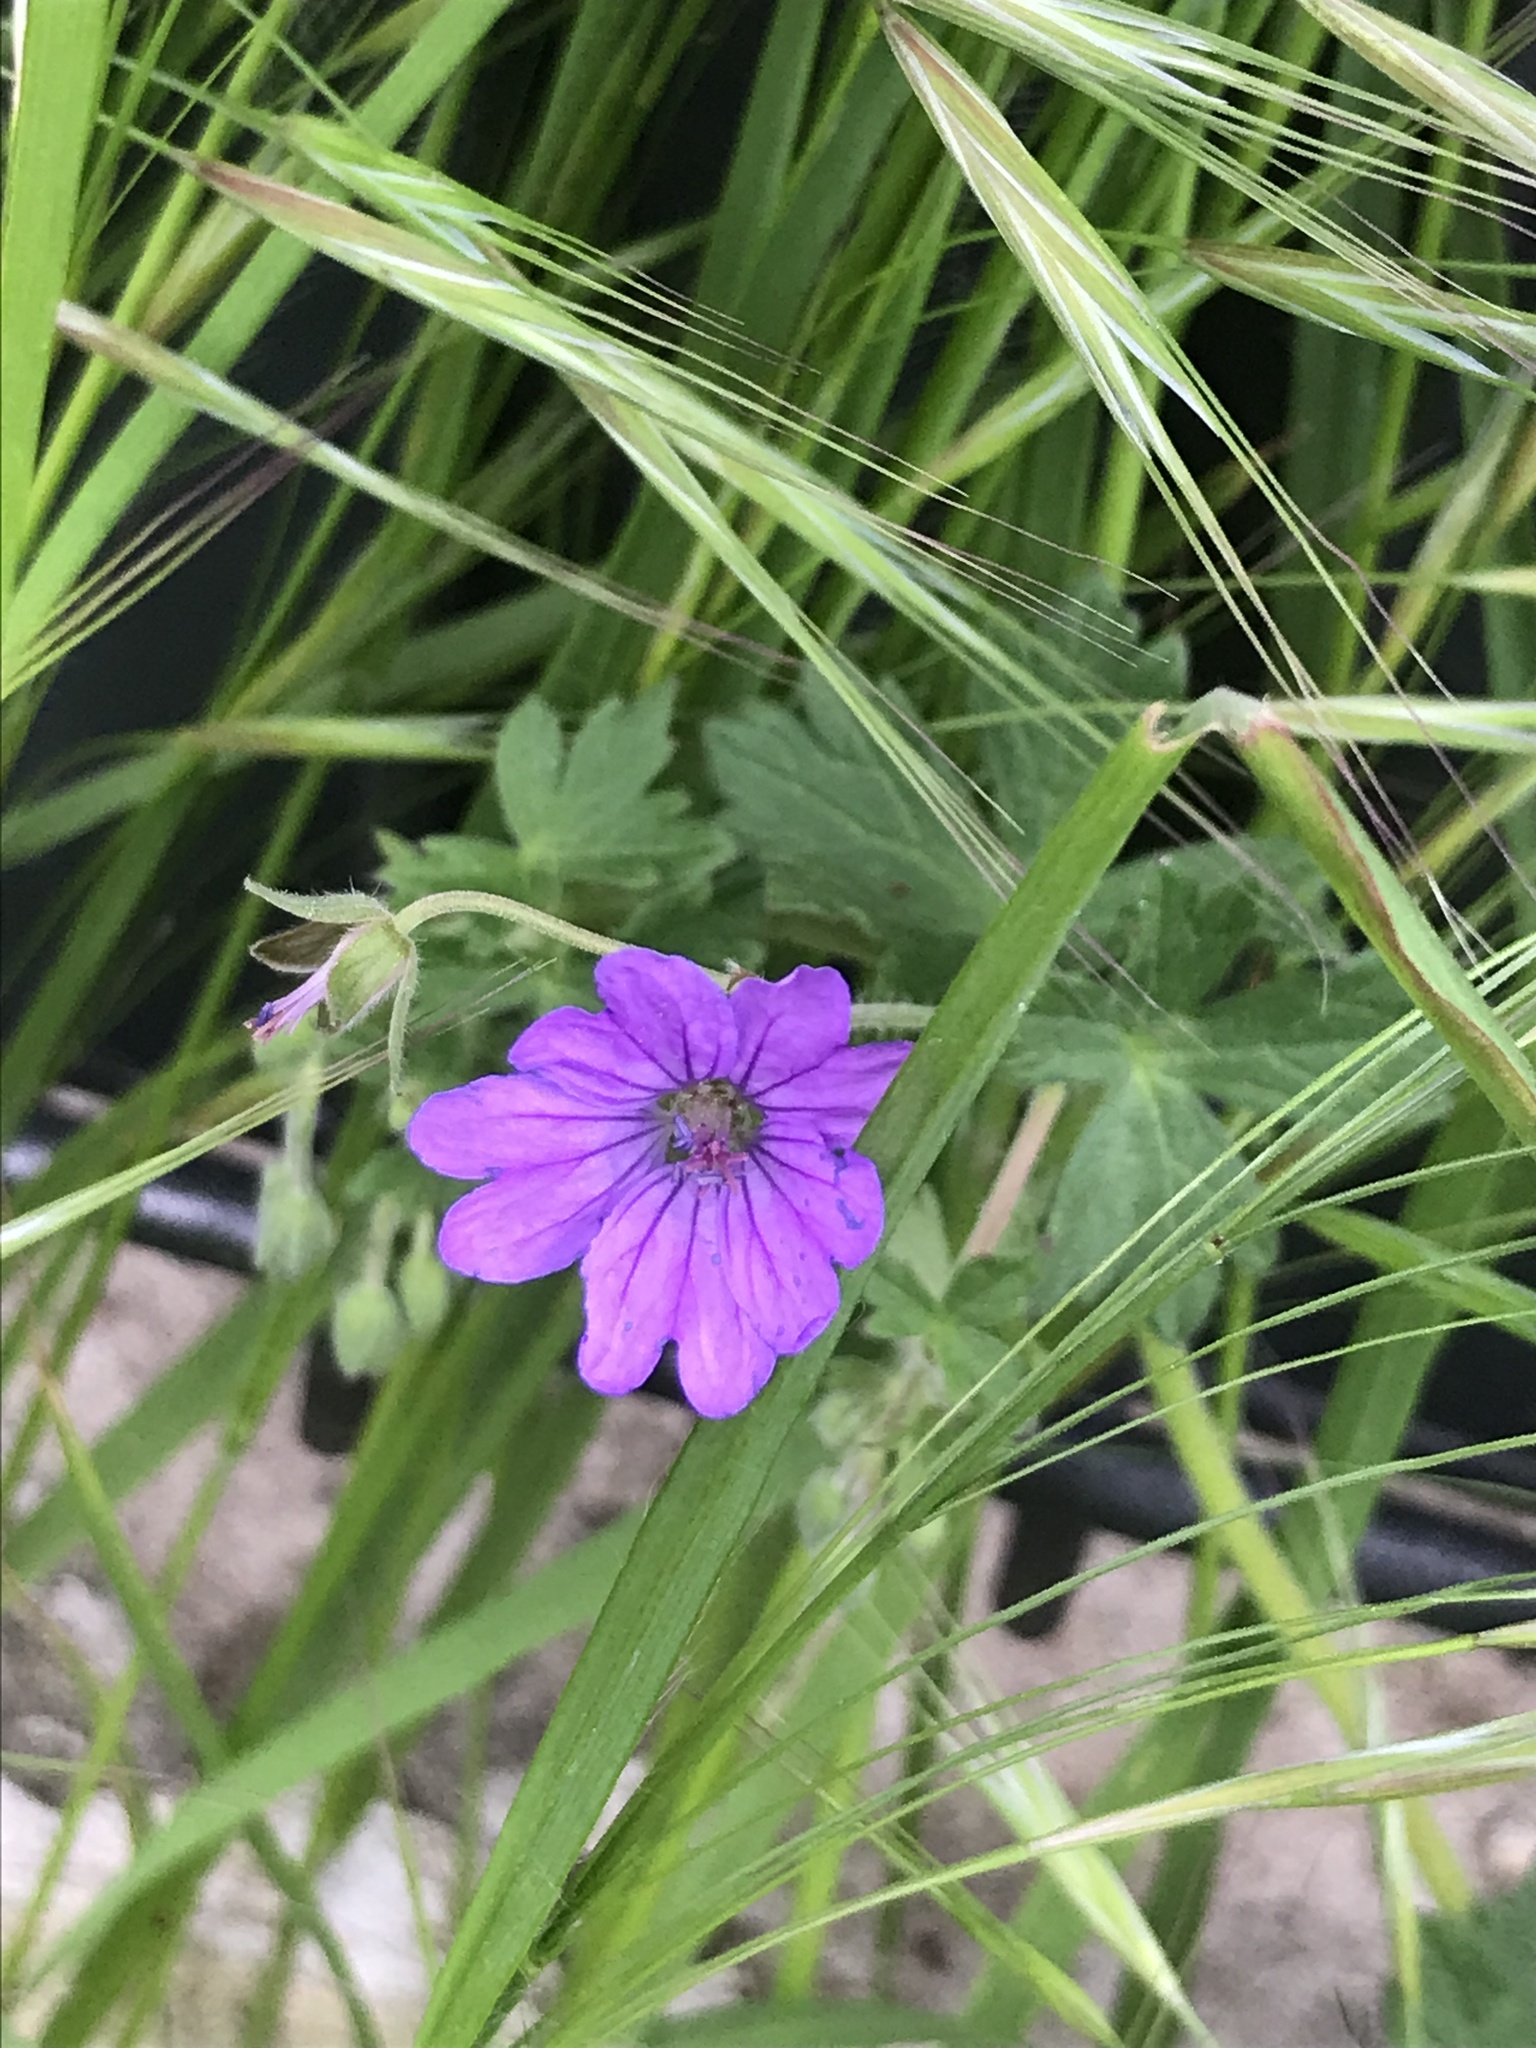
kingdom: Plantae
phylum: Tracheophyta
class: Magnoliopsida
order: Geraniales
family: Geraniaceae
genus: Geranium
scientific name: Geranium pyrenaicum
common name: Hedgerow crane's-bill
